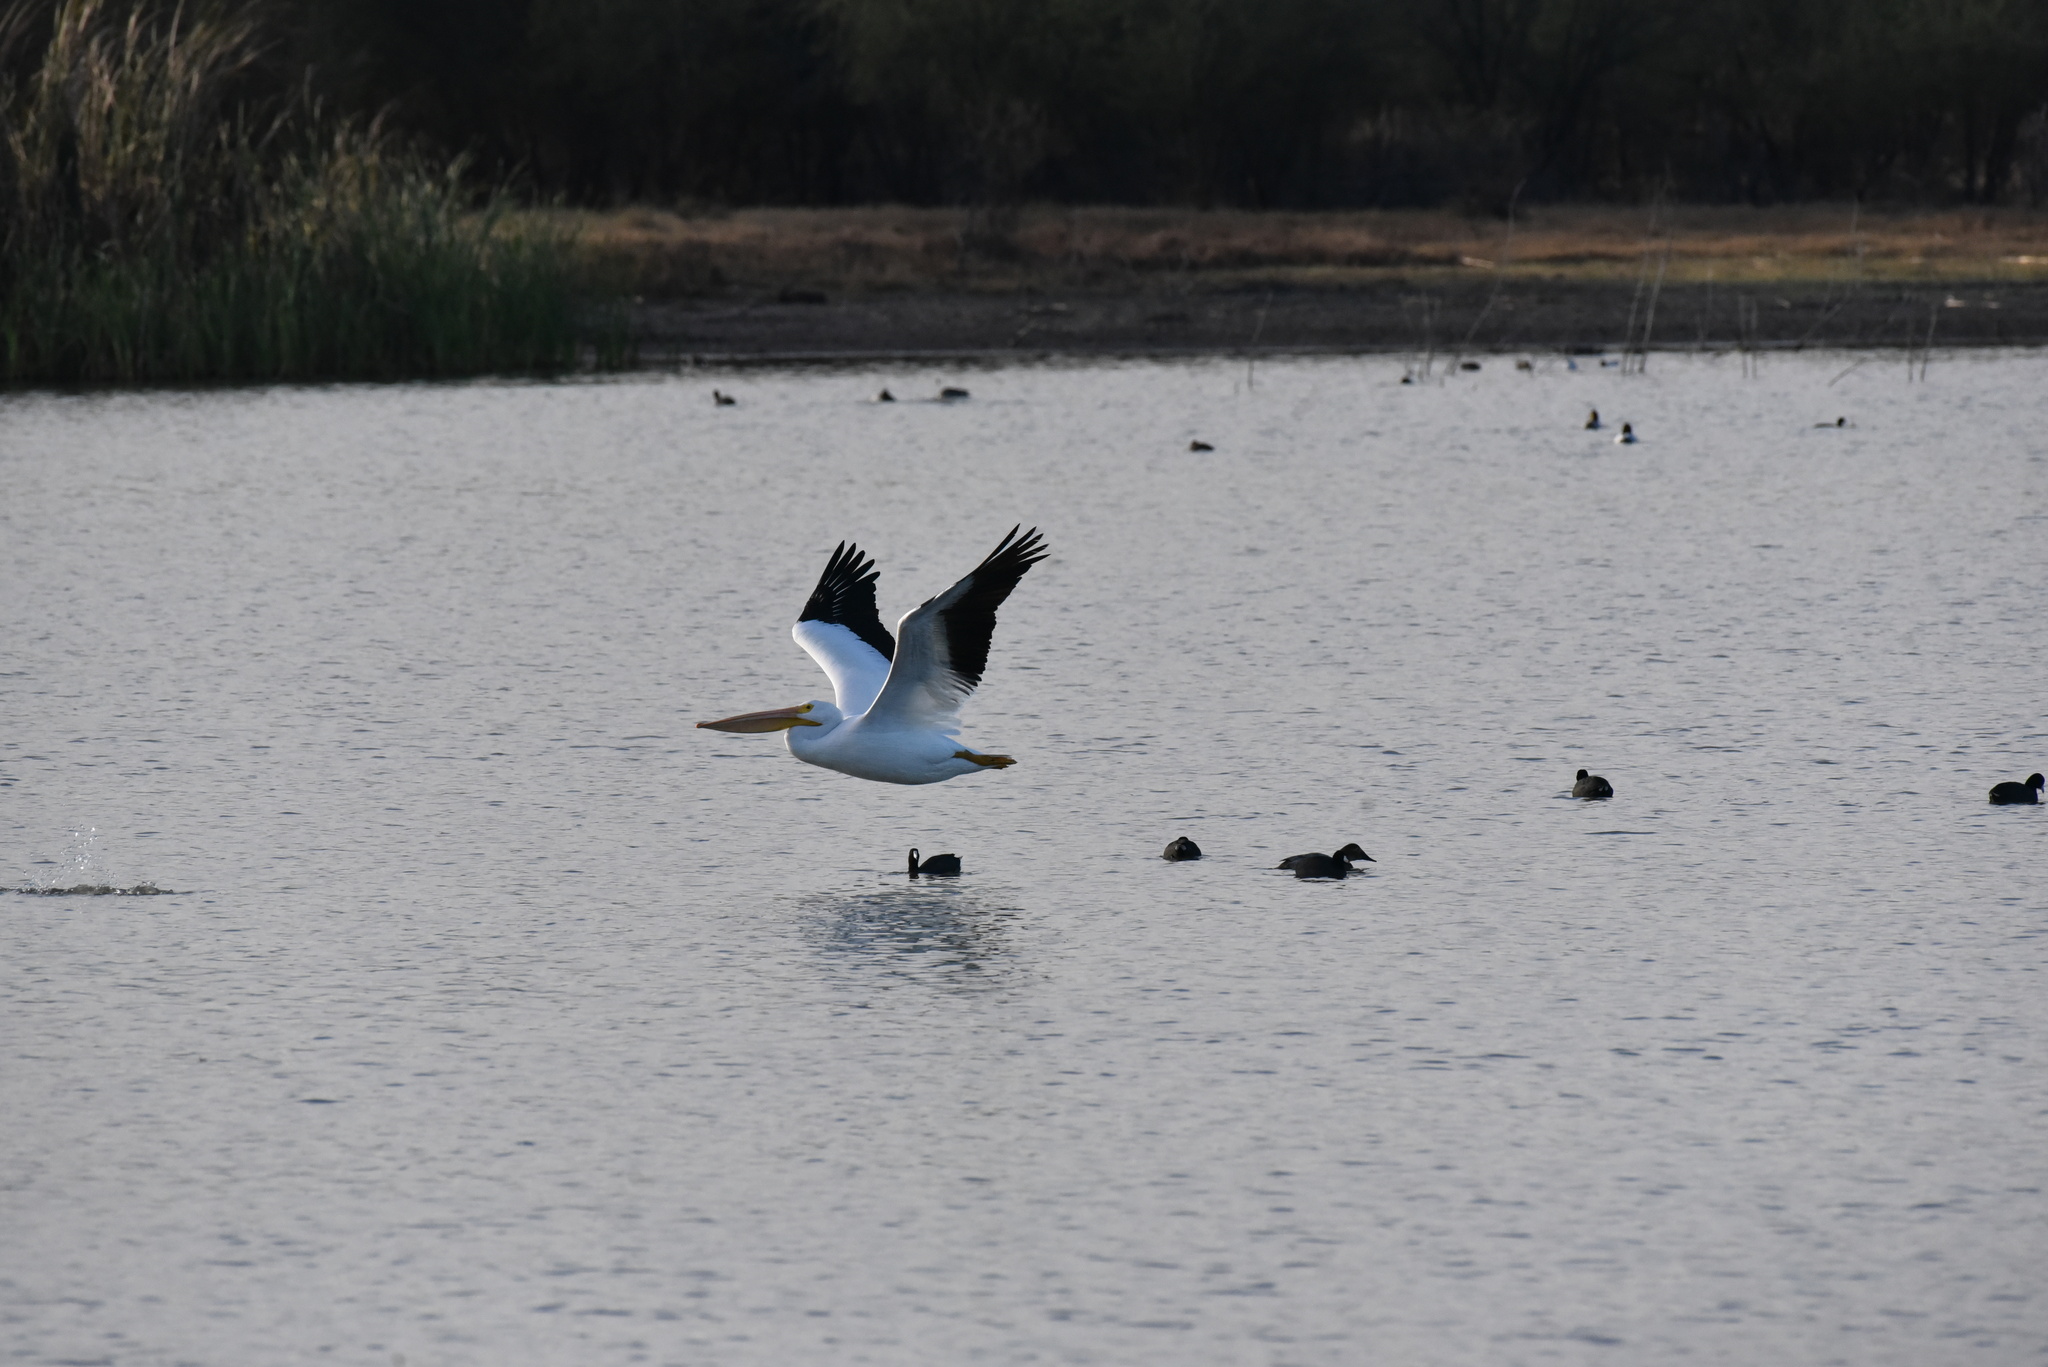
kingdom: Animalia
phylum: Chordata
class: Aves
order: Pelecaniformes
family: Pelecanidae
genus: Pelecanus
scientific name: Pelecanus erythrorhynchos
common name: American white pelican
